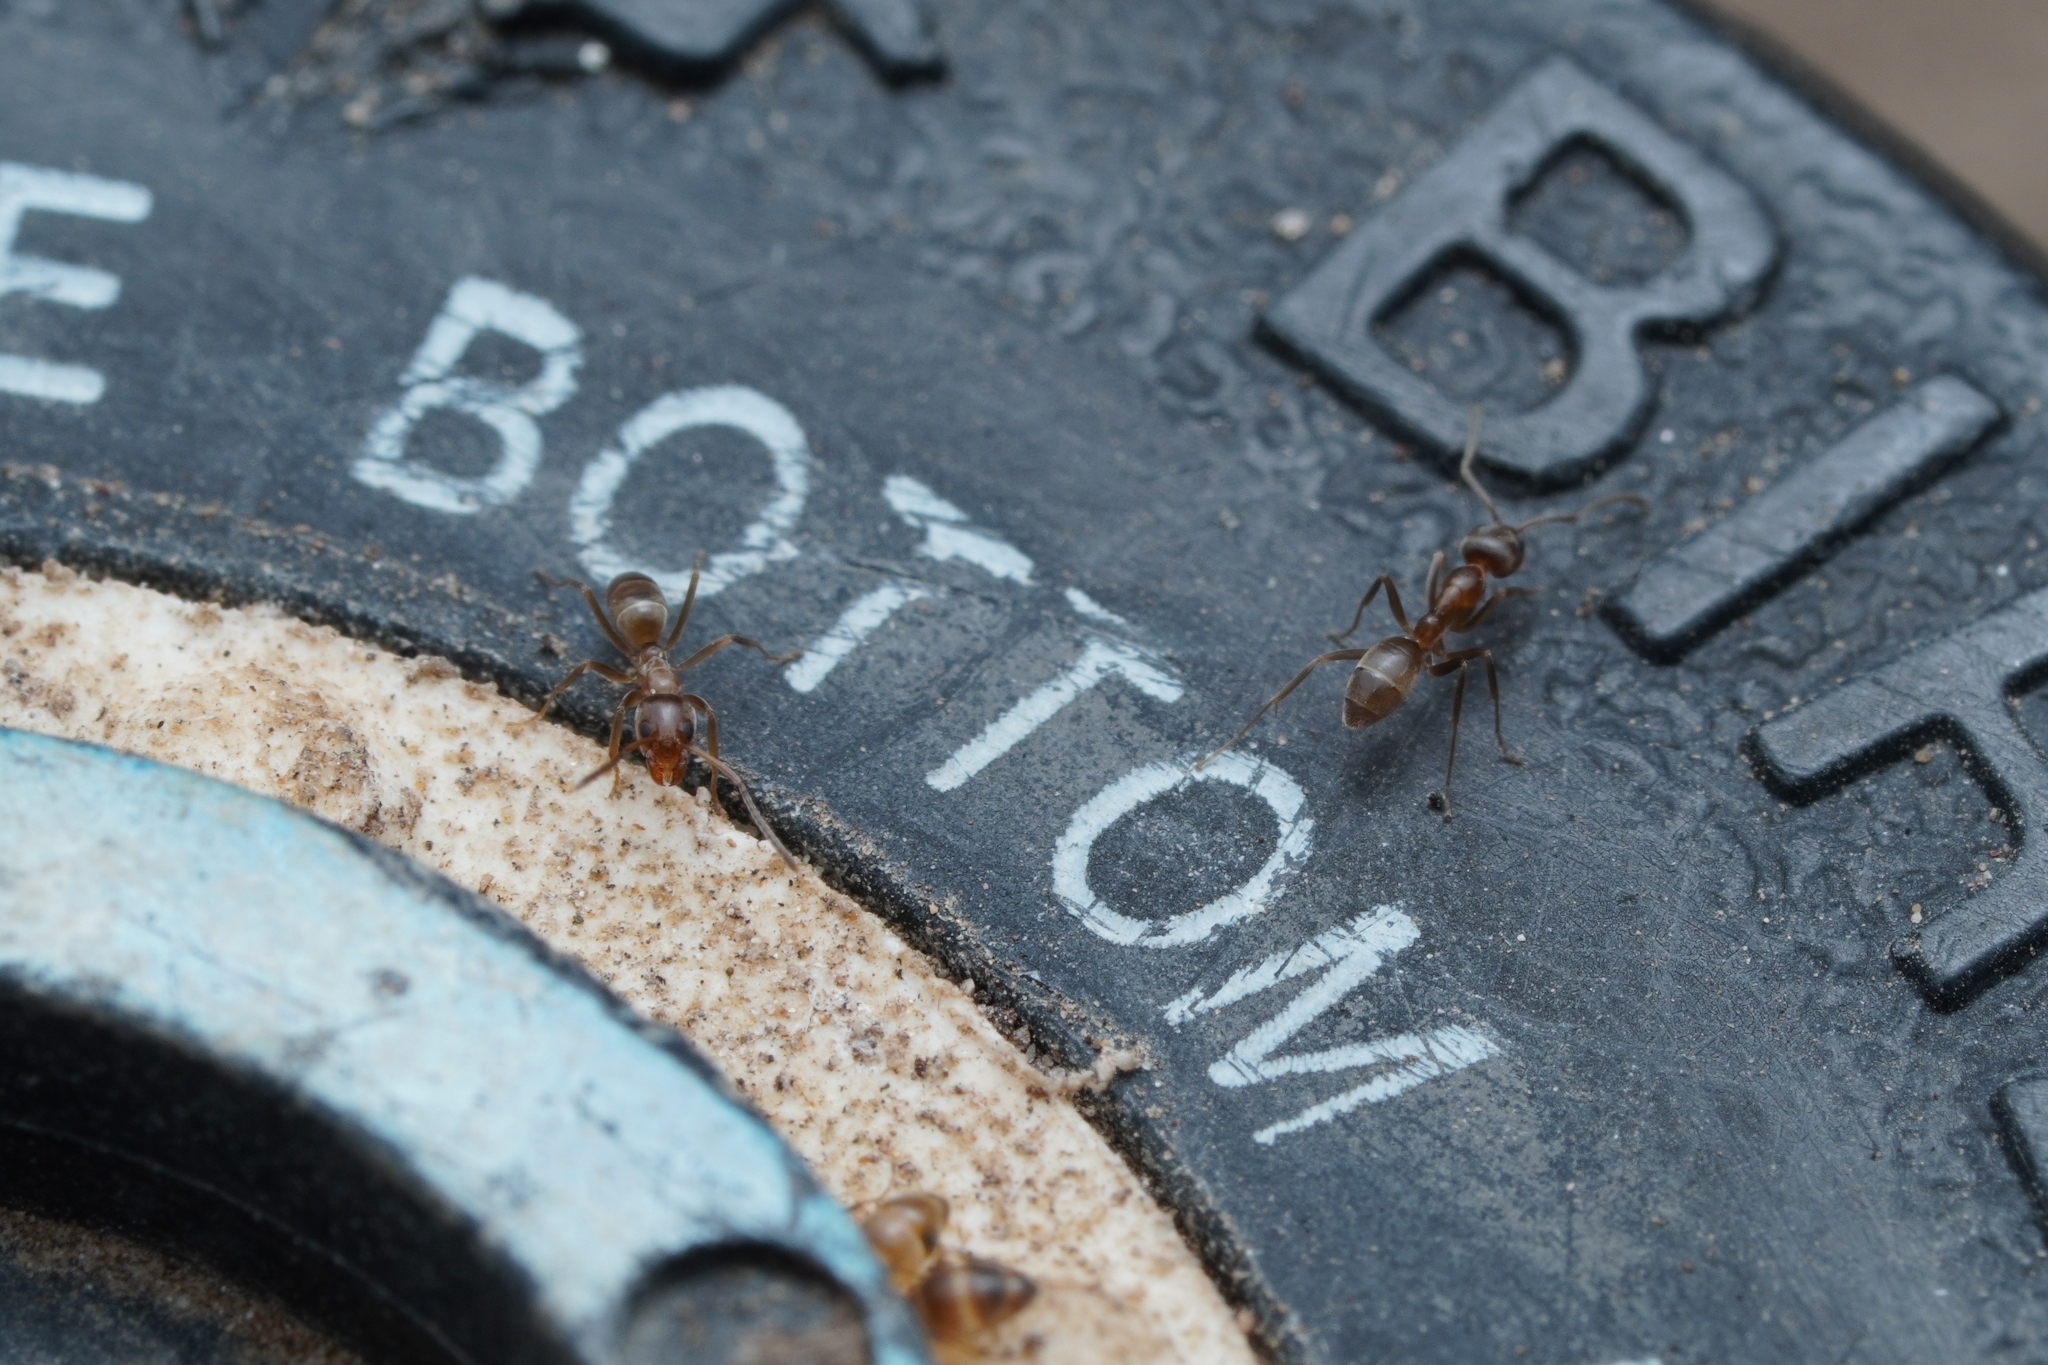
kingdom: Animalia
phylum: Arthropoda
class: Insecta
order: Hymenoptera
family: Formicidae
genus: Linepithema
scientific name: Linepithema humile
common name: Argentine ant
